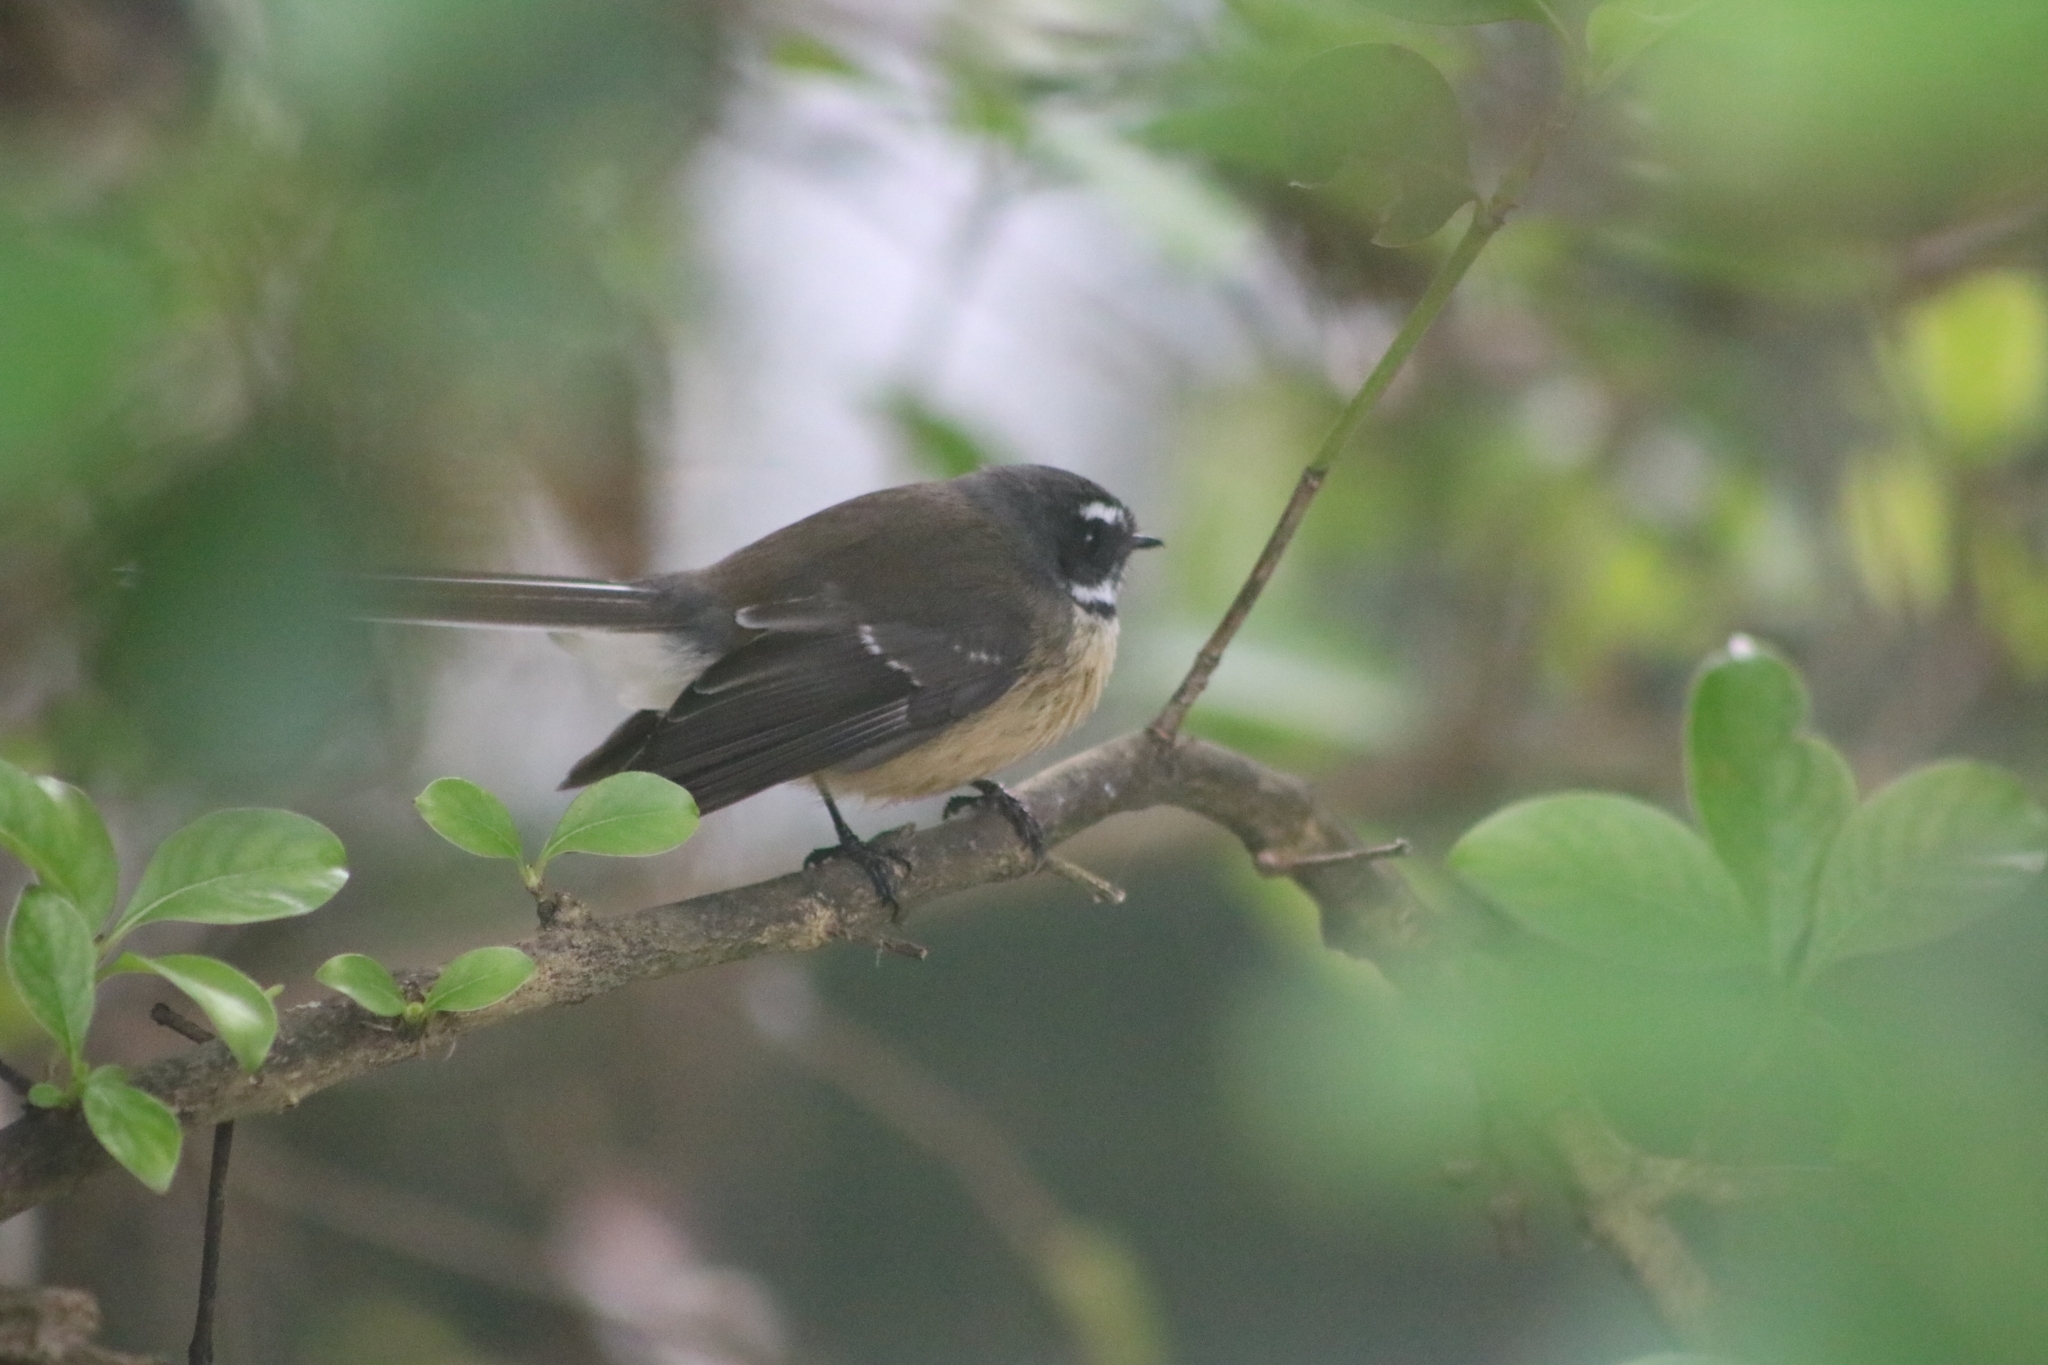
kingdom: Animalia
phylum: Chordata
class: Aves
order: Passeriformes
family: Rhipiduridae
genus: Rhipidura
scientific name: Rhipidura fuliginosa
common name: New zealand fantail
